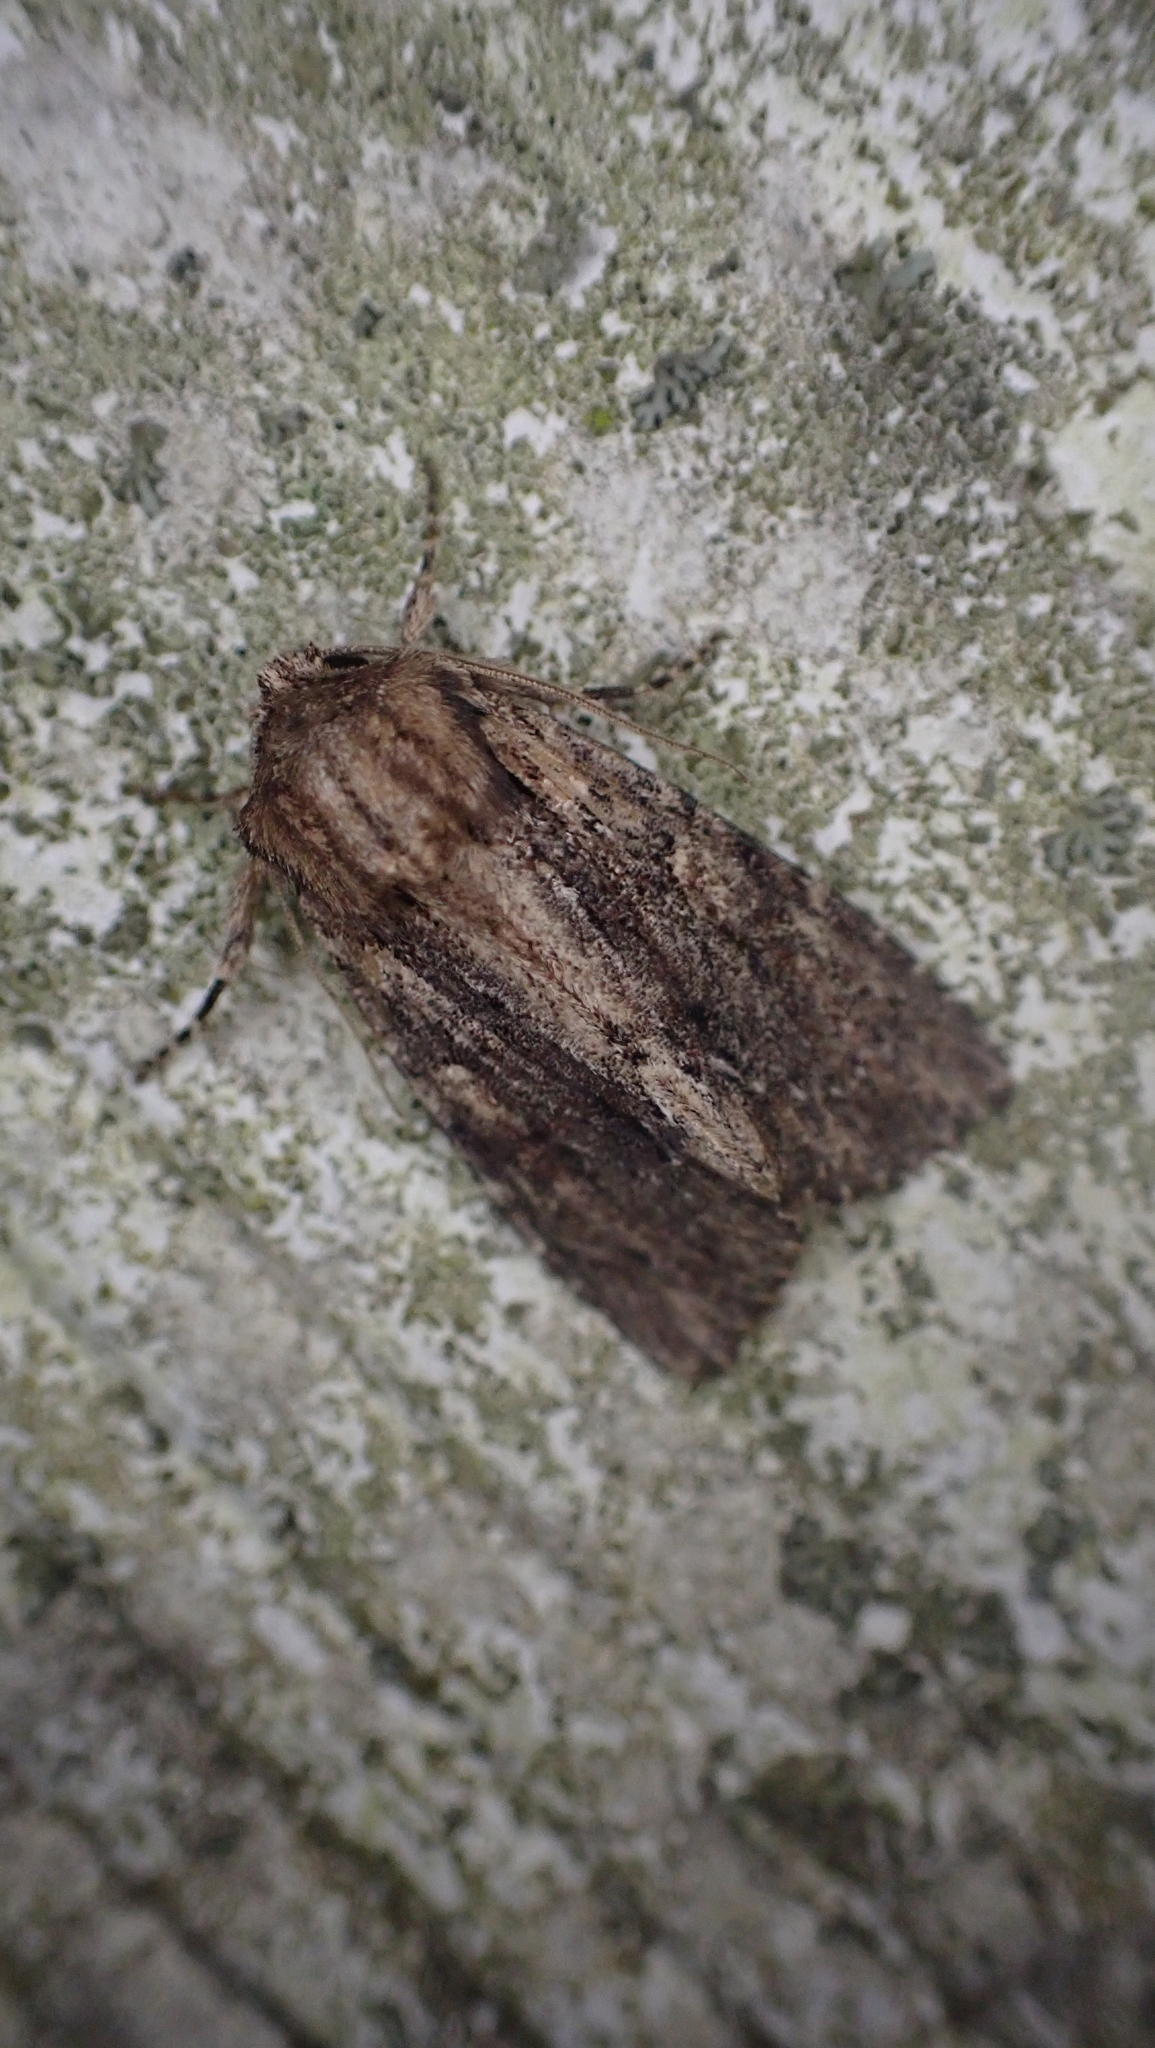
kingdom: Animalia
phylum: Arthropoda
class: Insecta
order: Lepidoptera
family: Noctuidae
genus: Achatia
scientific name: Achatia confusa
